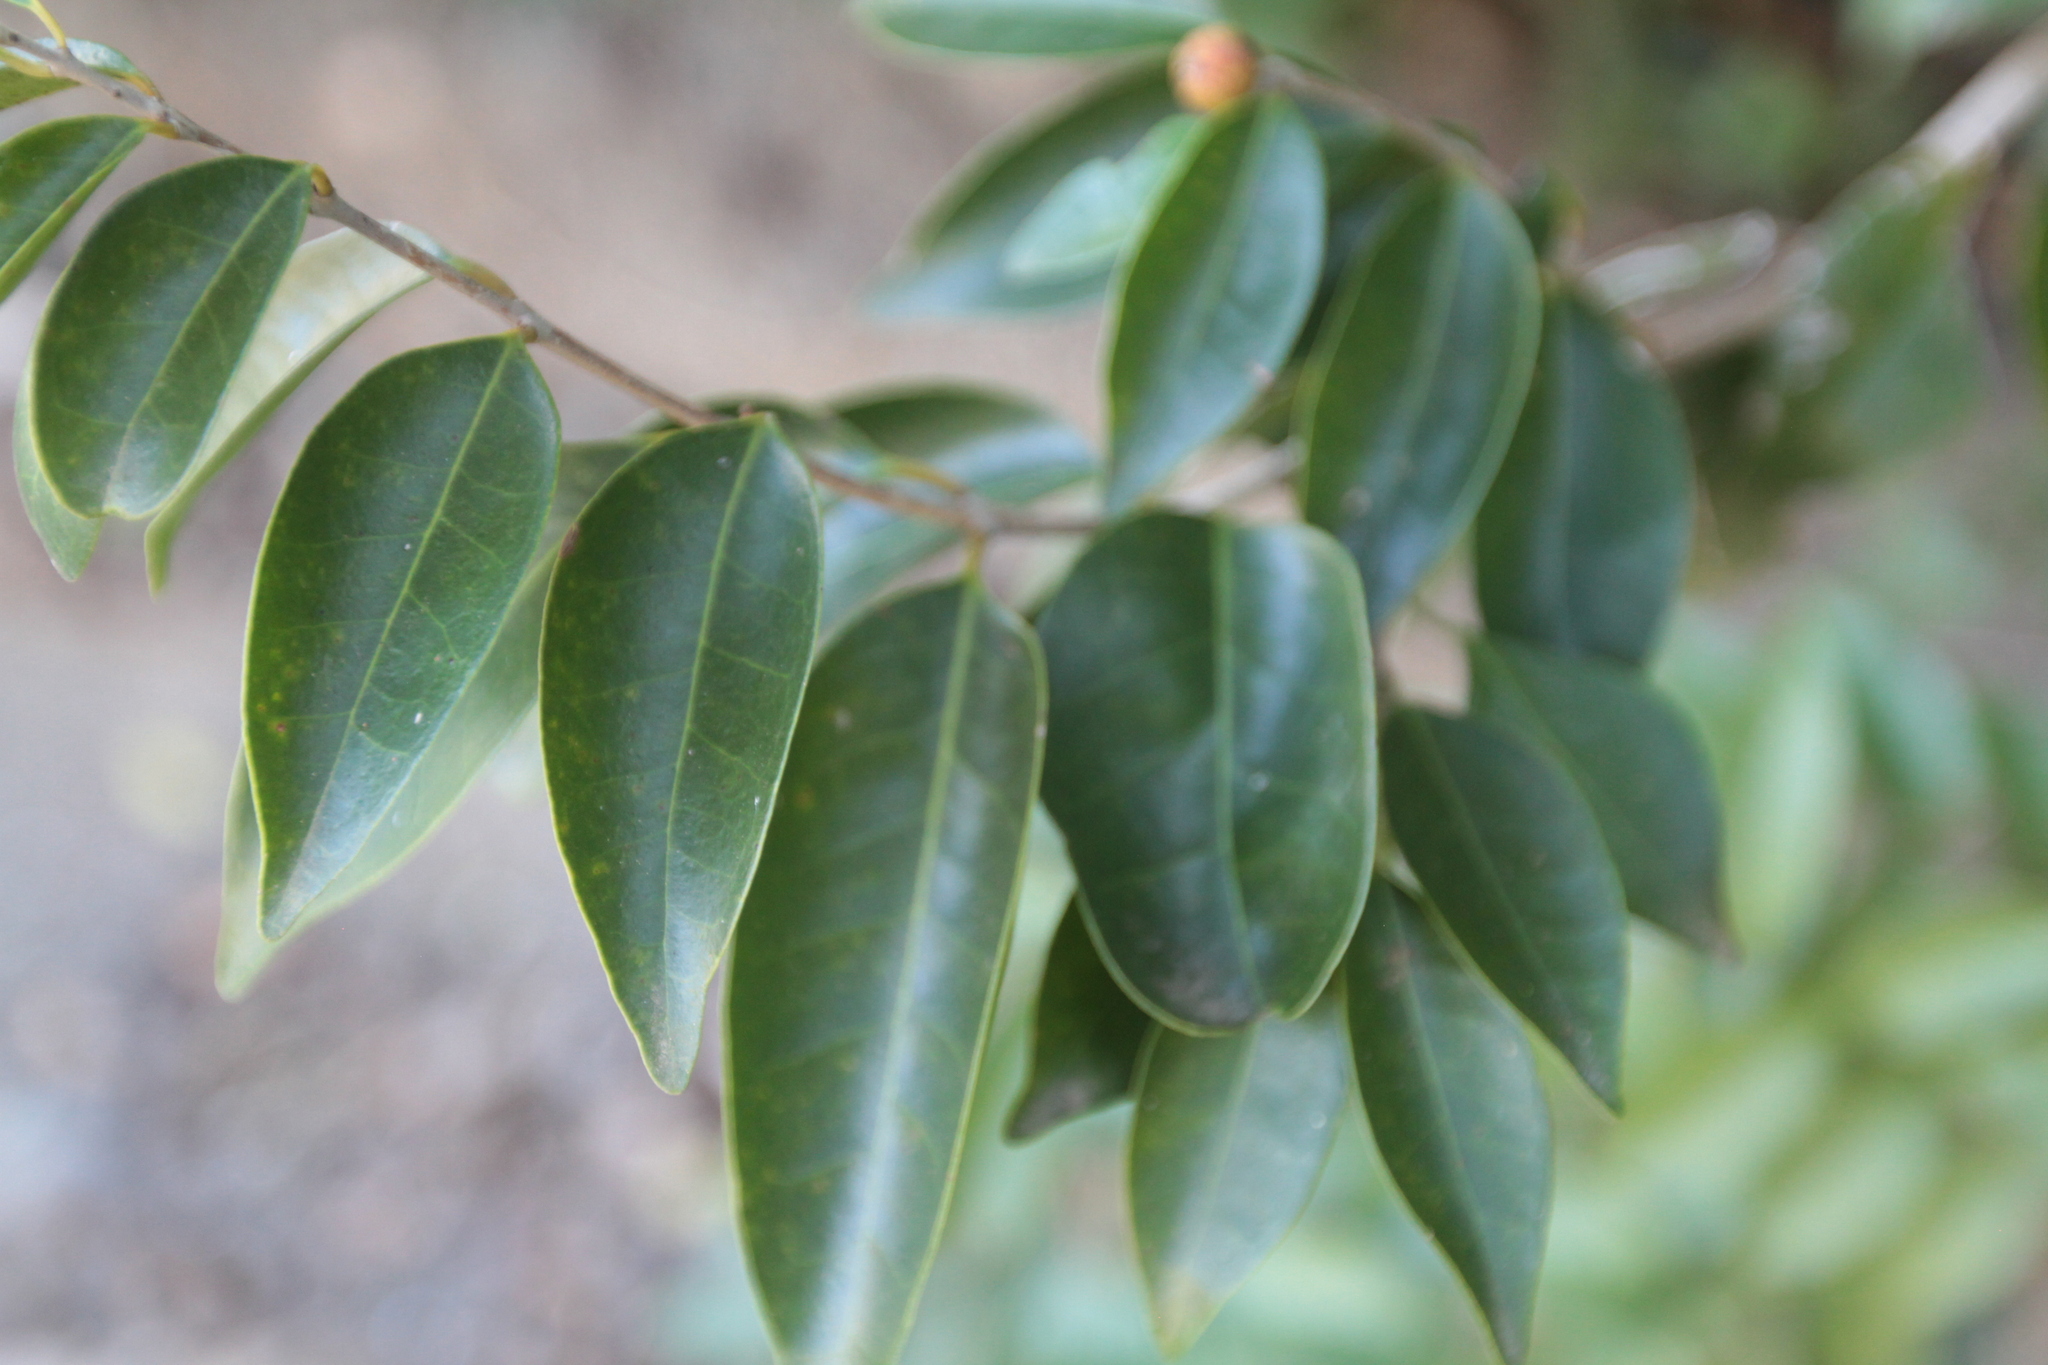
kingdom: Plantae
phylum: Tracheophyta
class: Magnoliopsida
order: Myrtales
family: Myrtaceae
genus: Eugenia
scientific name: Eugenia axillaris
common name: Choaky berry
